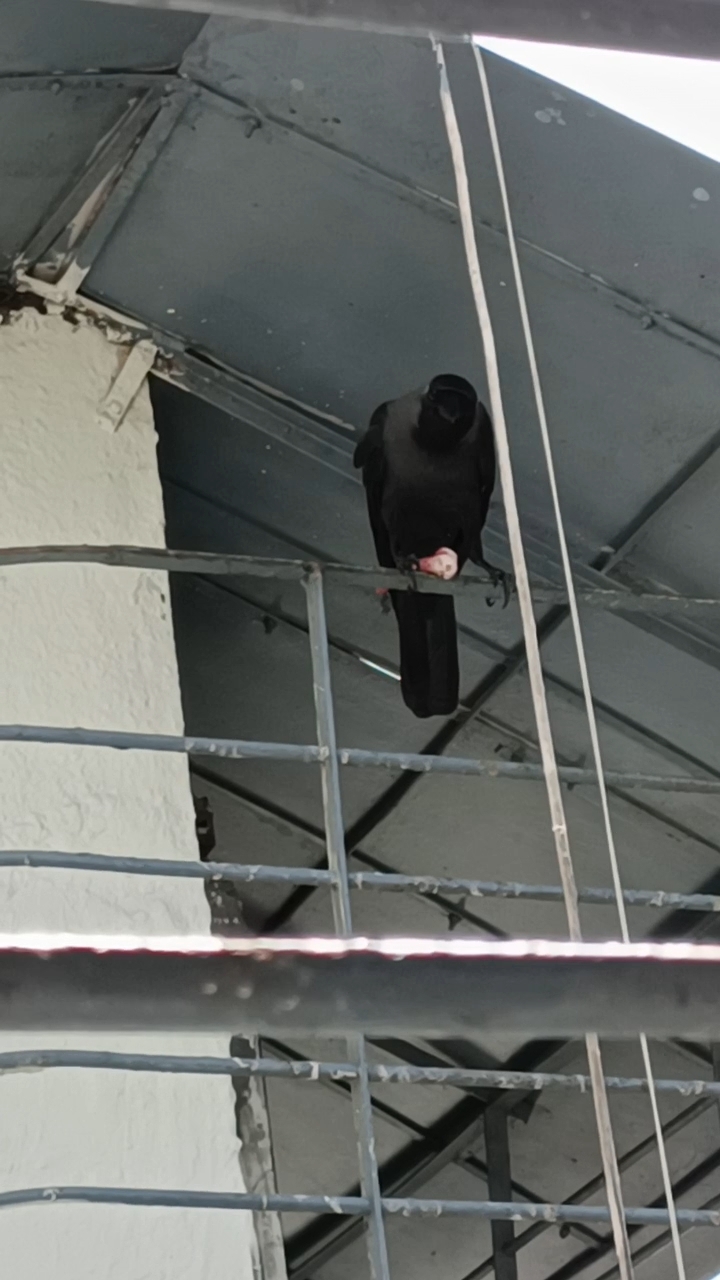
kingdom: Animalia
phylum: Chordata
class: Aves
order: Passeriformes
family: Corvidae
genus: Corvus
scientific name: Corvus splendens
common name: House crow
